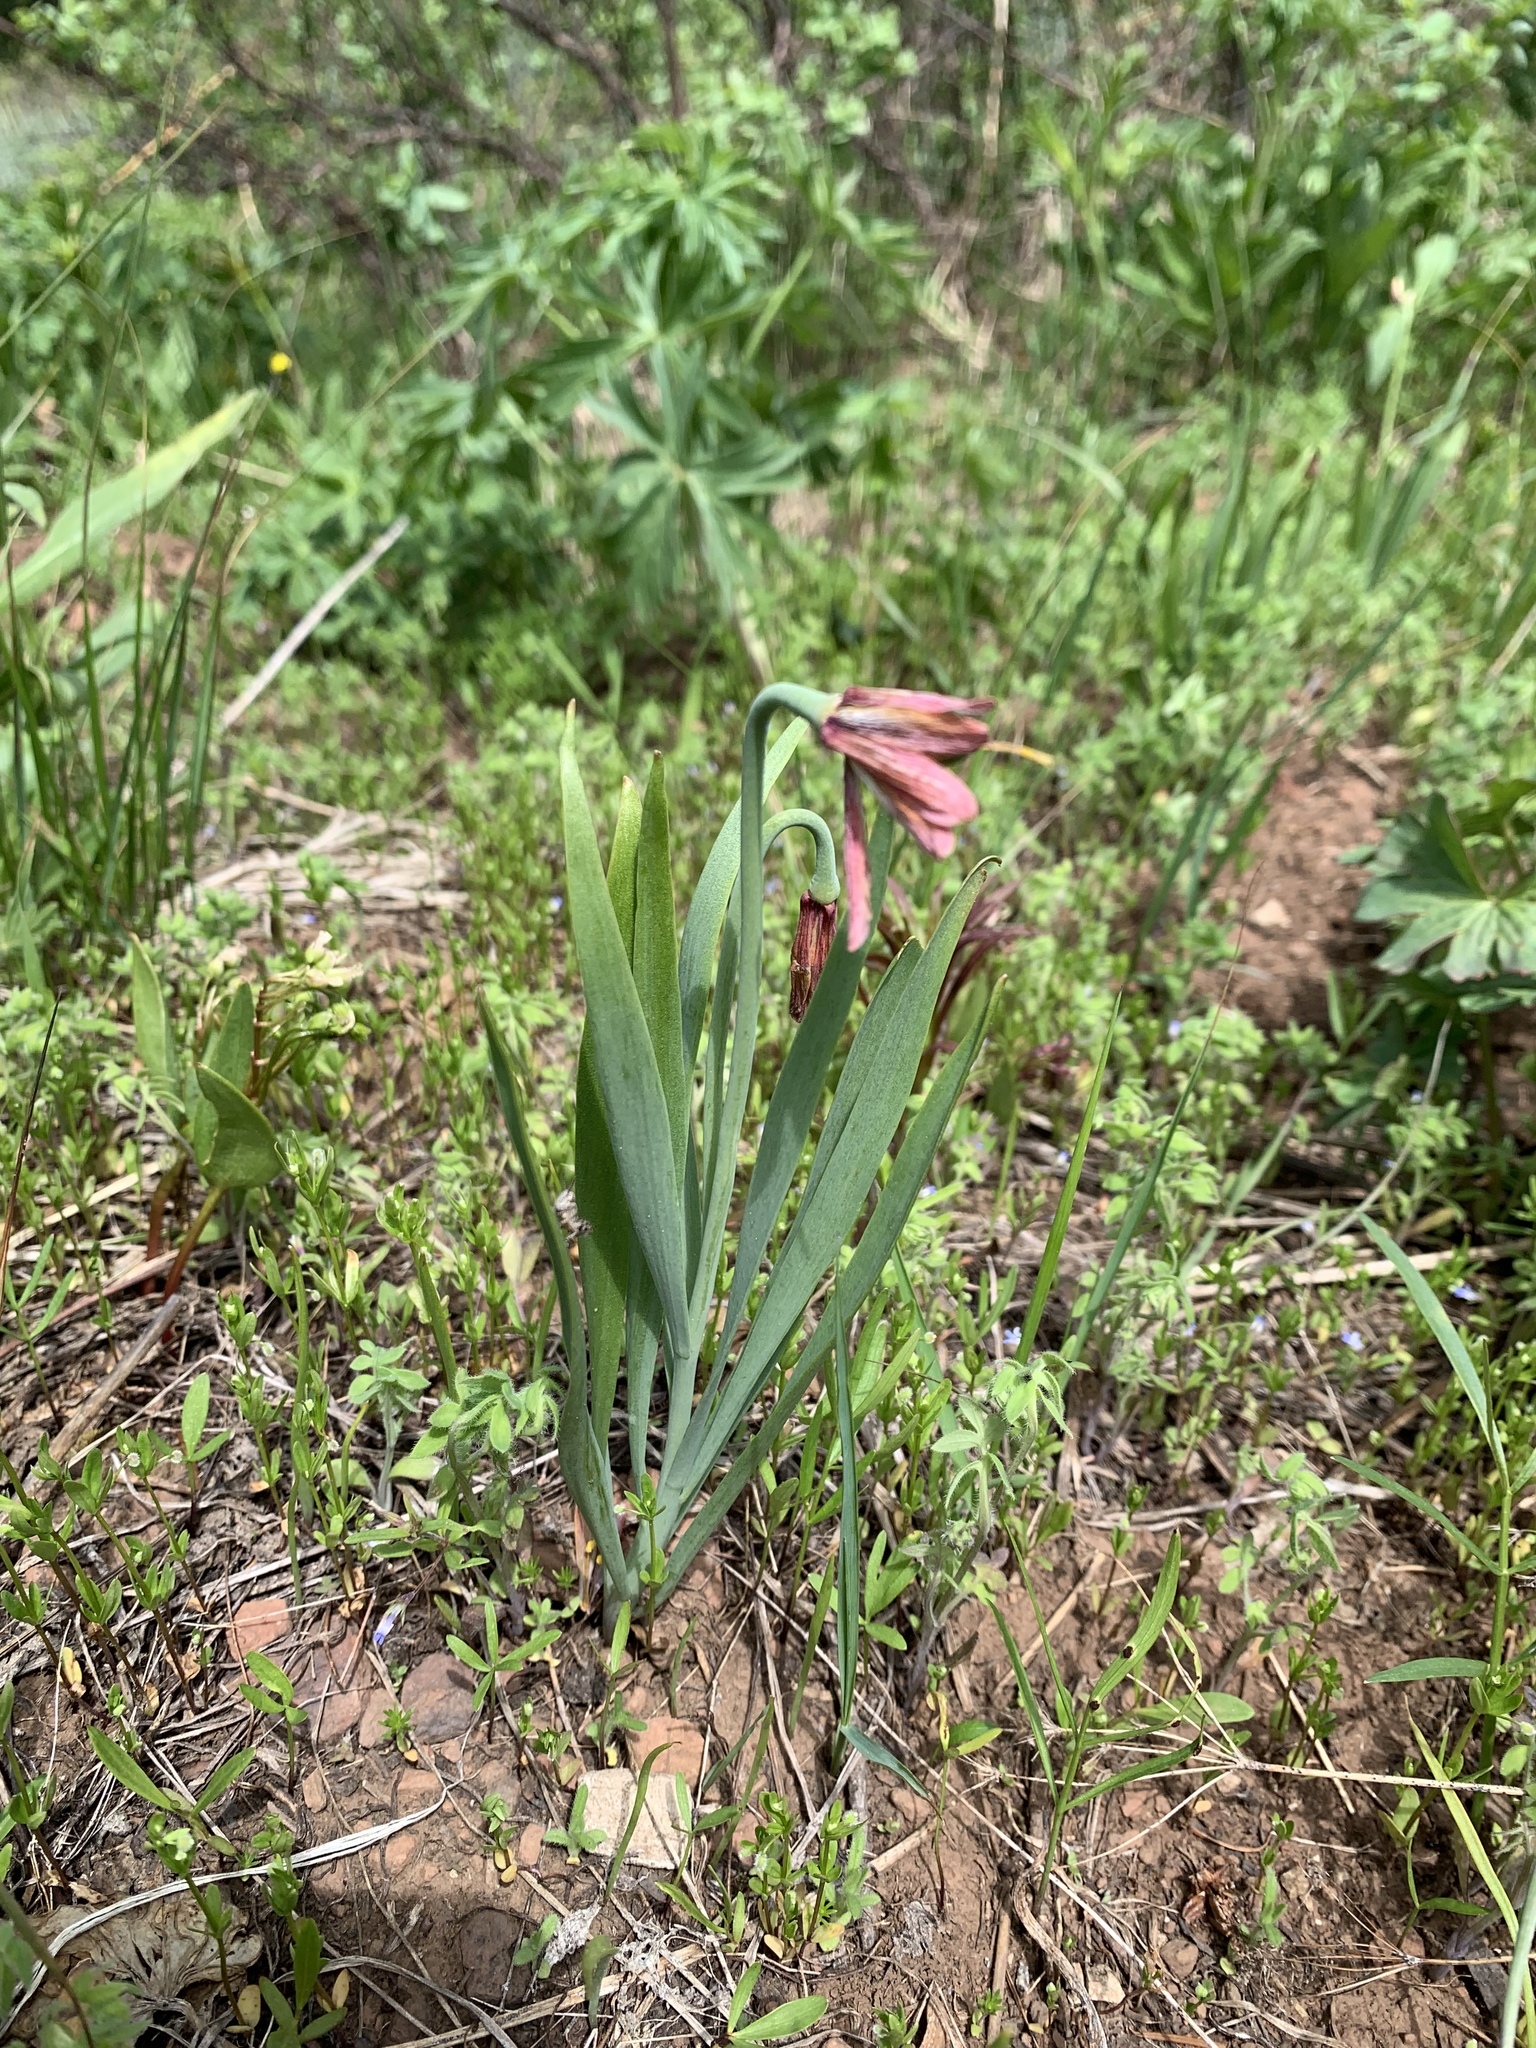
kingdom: Plantae
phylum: Tracheophyta
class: Liliopsida
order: Liliales
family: Liliaceae
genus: Fritillaria
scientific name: Fritillaria pudica
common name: Yellow fritillary
